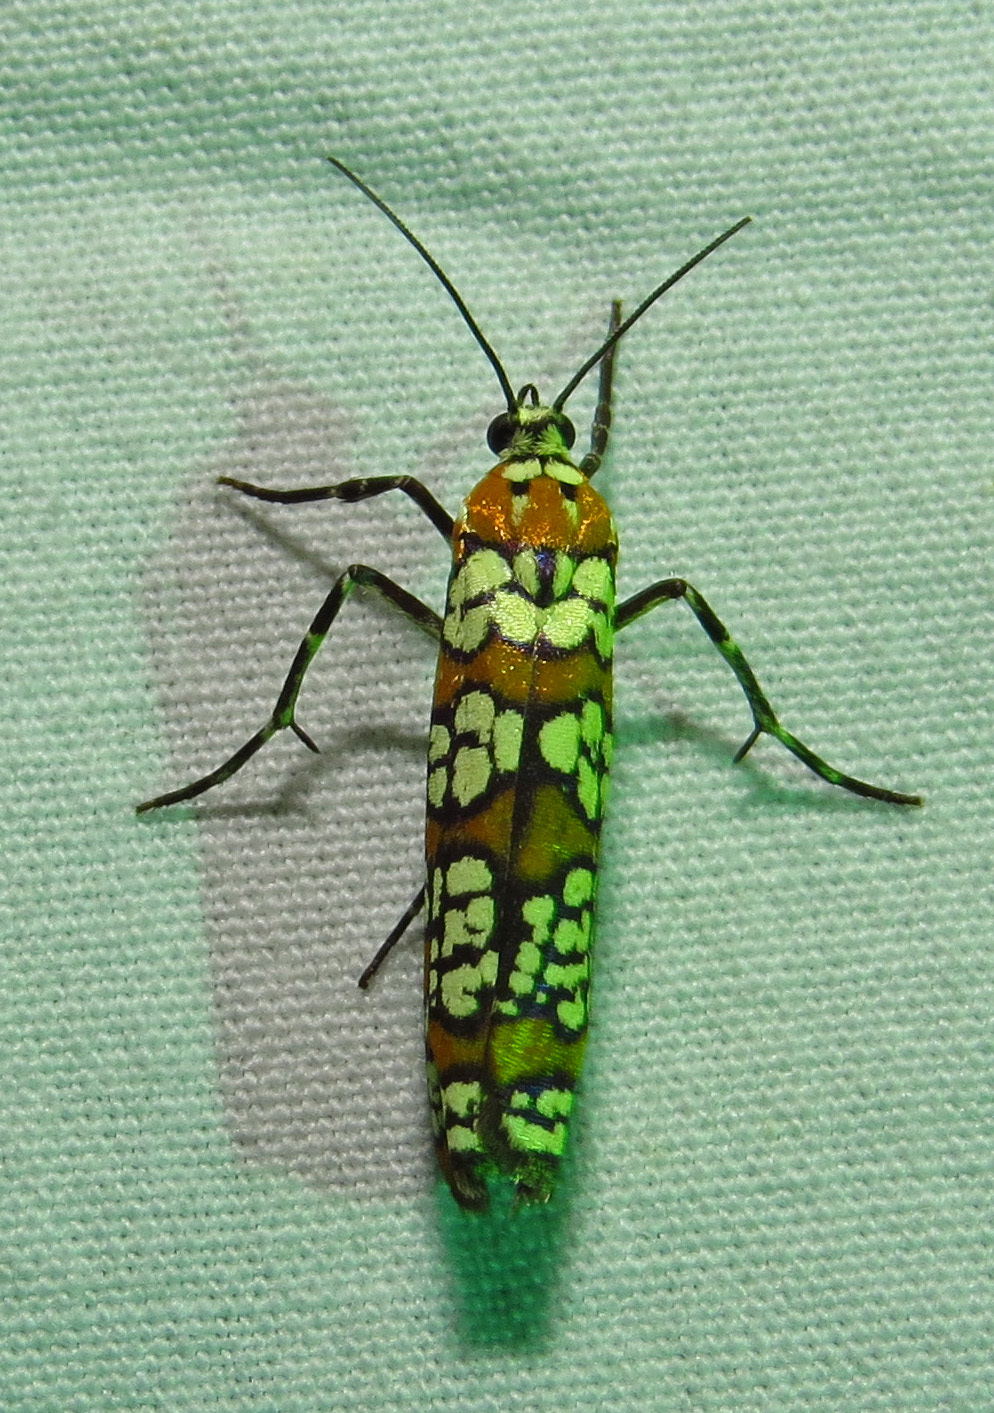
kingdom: Animalia
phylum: Arthropoda
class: Insecta
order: Lepidoptera
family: Attevidae
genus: Atteva
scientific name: Atteva punctella
